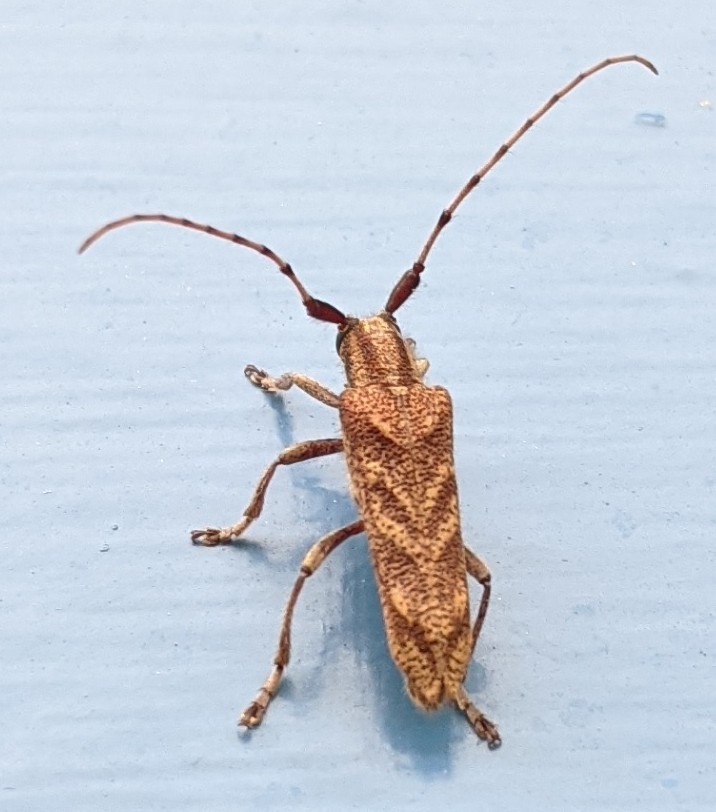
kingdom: Animalia
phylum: Arthropoda
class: Insecta
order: Coleoptera
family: Cerambycidae
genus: Saperda
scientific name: Saperda obliqua
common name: Alder borer
